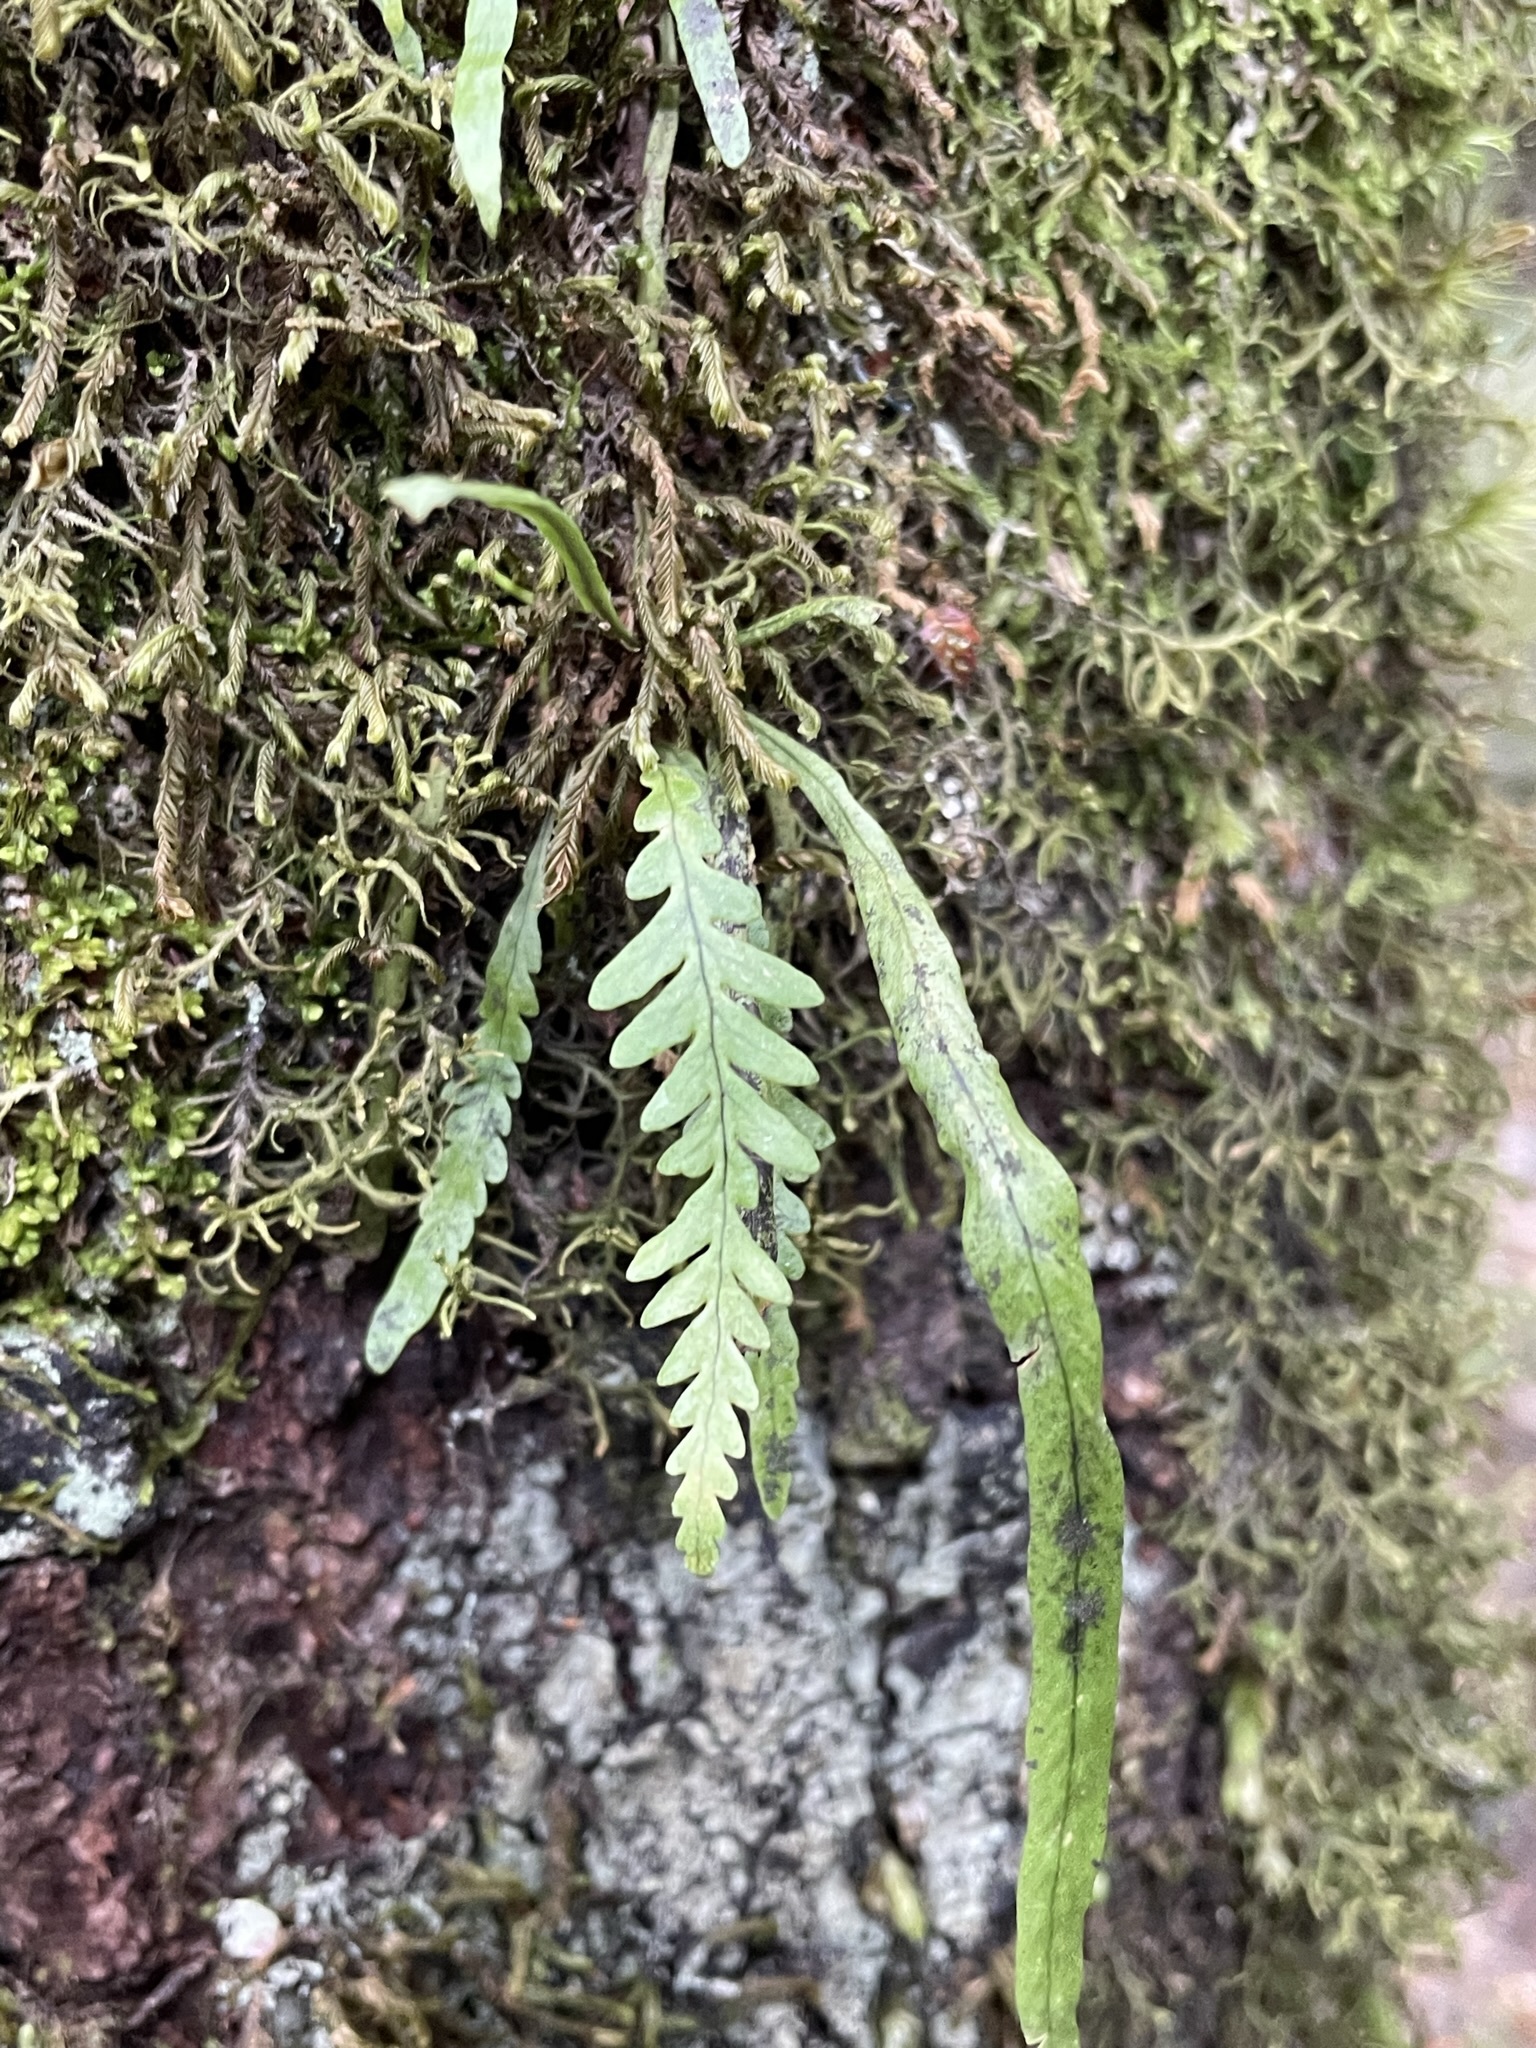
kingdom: Plantae
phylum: Tracheophyta
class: Polypodiopsida
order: Polypodiales
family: Polypodiaceae
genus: Notogrammitis
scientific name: Notogrammitis heterophylla
